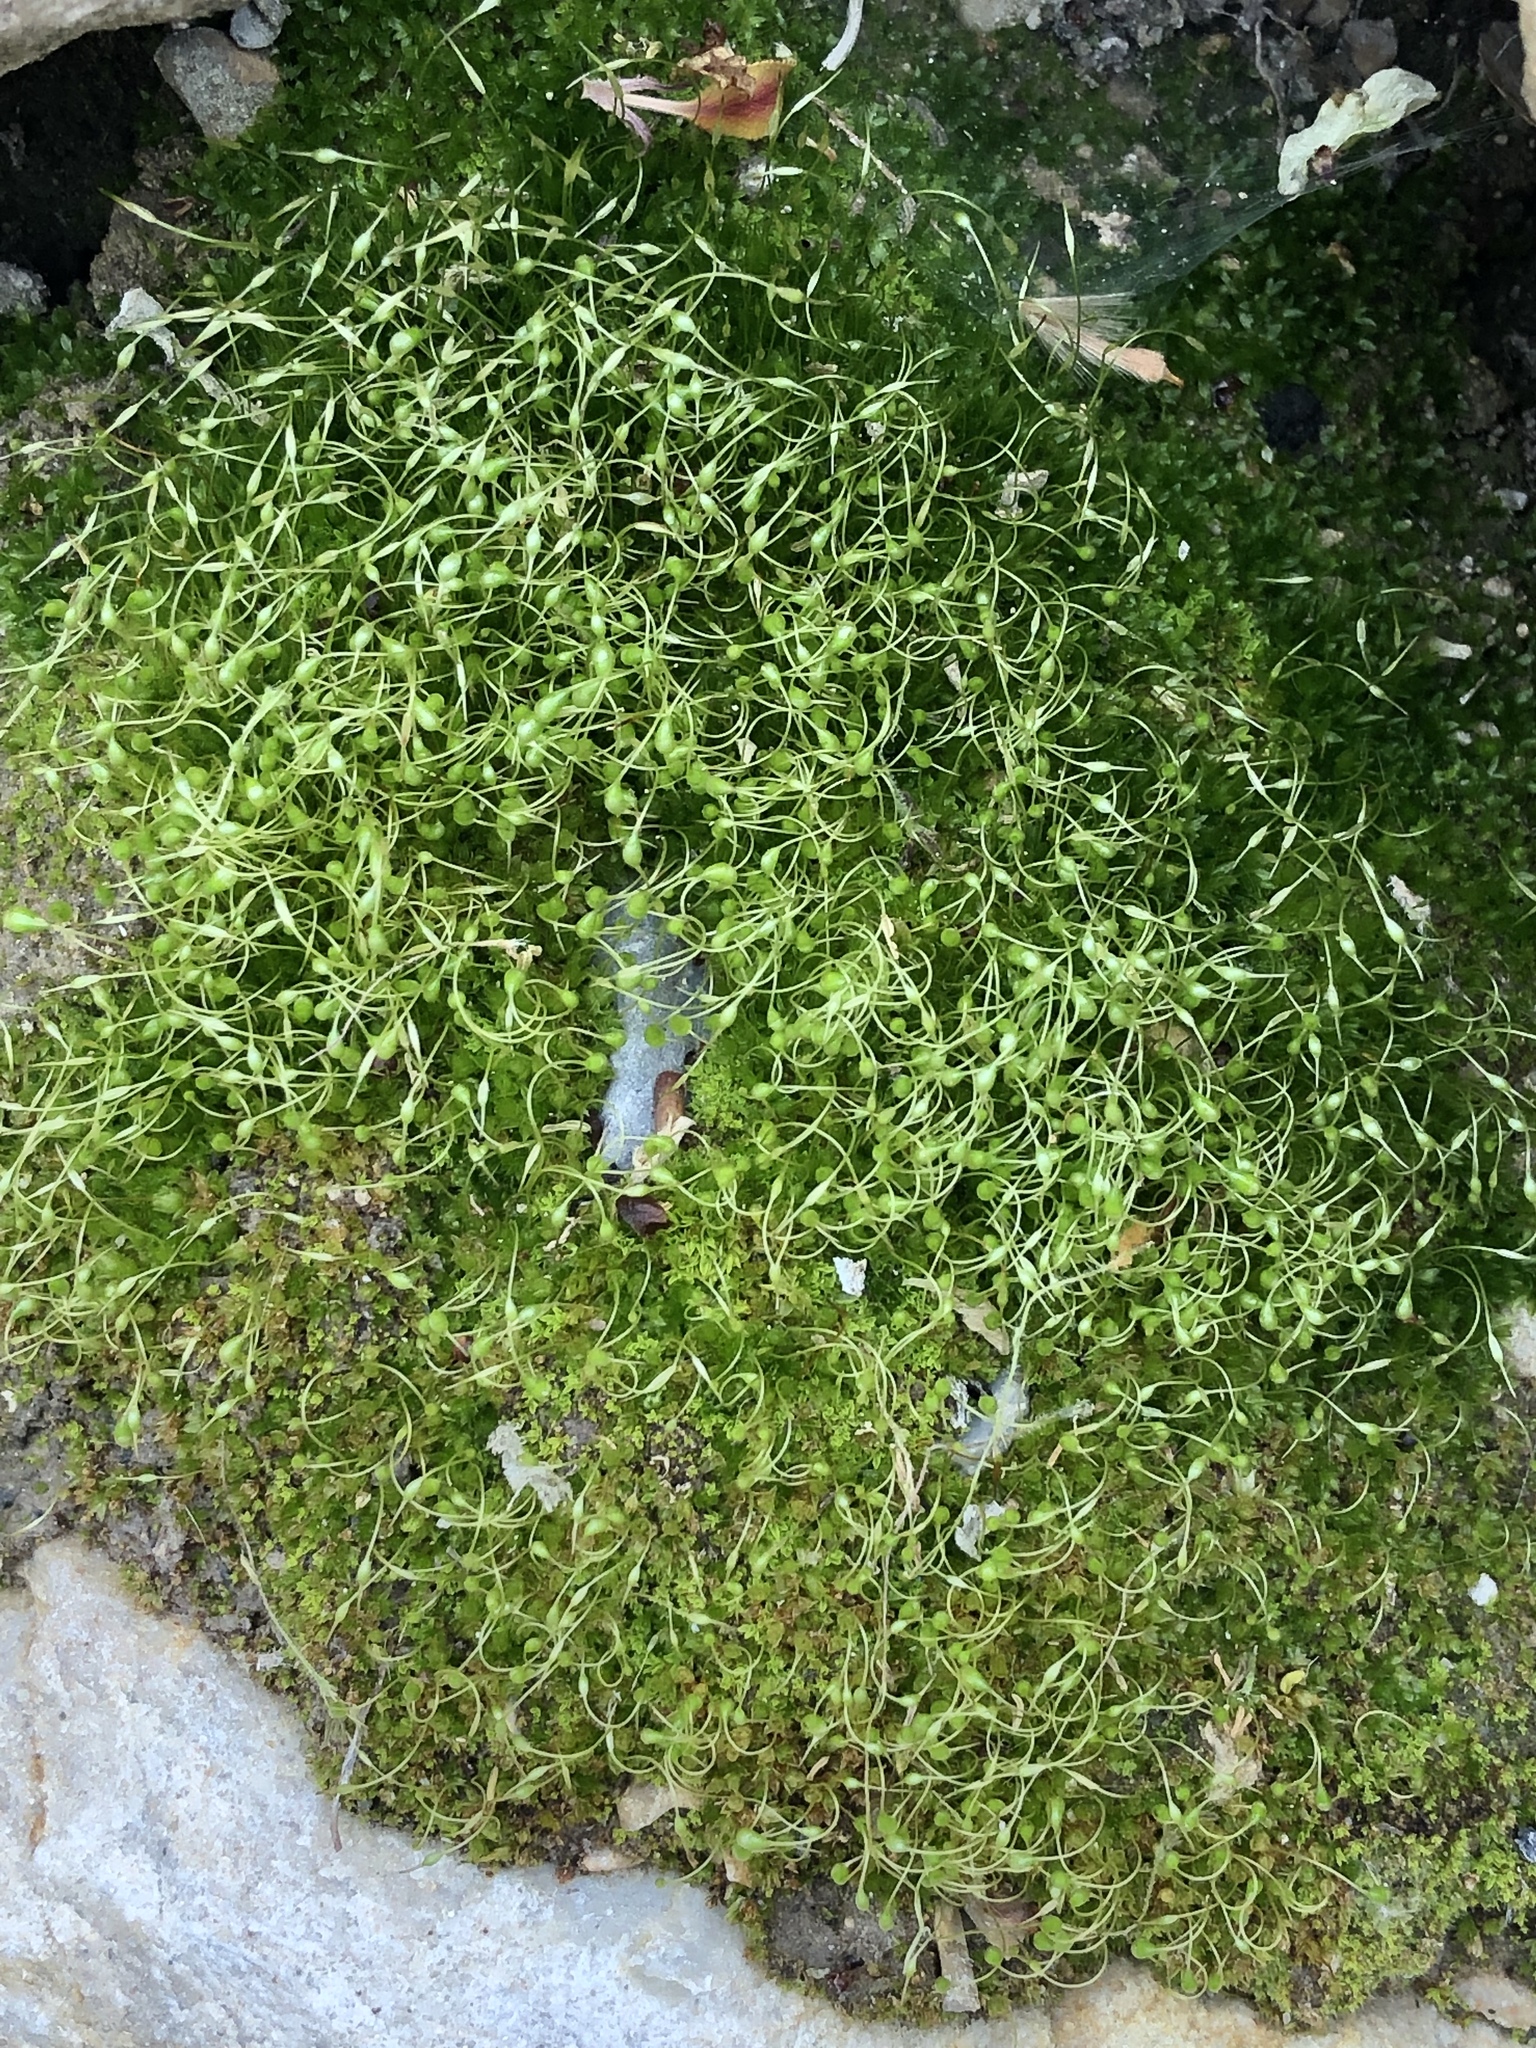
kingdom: Plantae
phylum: Bryophyta
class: Bryopsida
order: Funariales
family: Funariaceae
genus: Funaria
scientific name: Funaria hygrometrica
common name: Common cord moss
